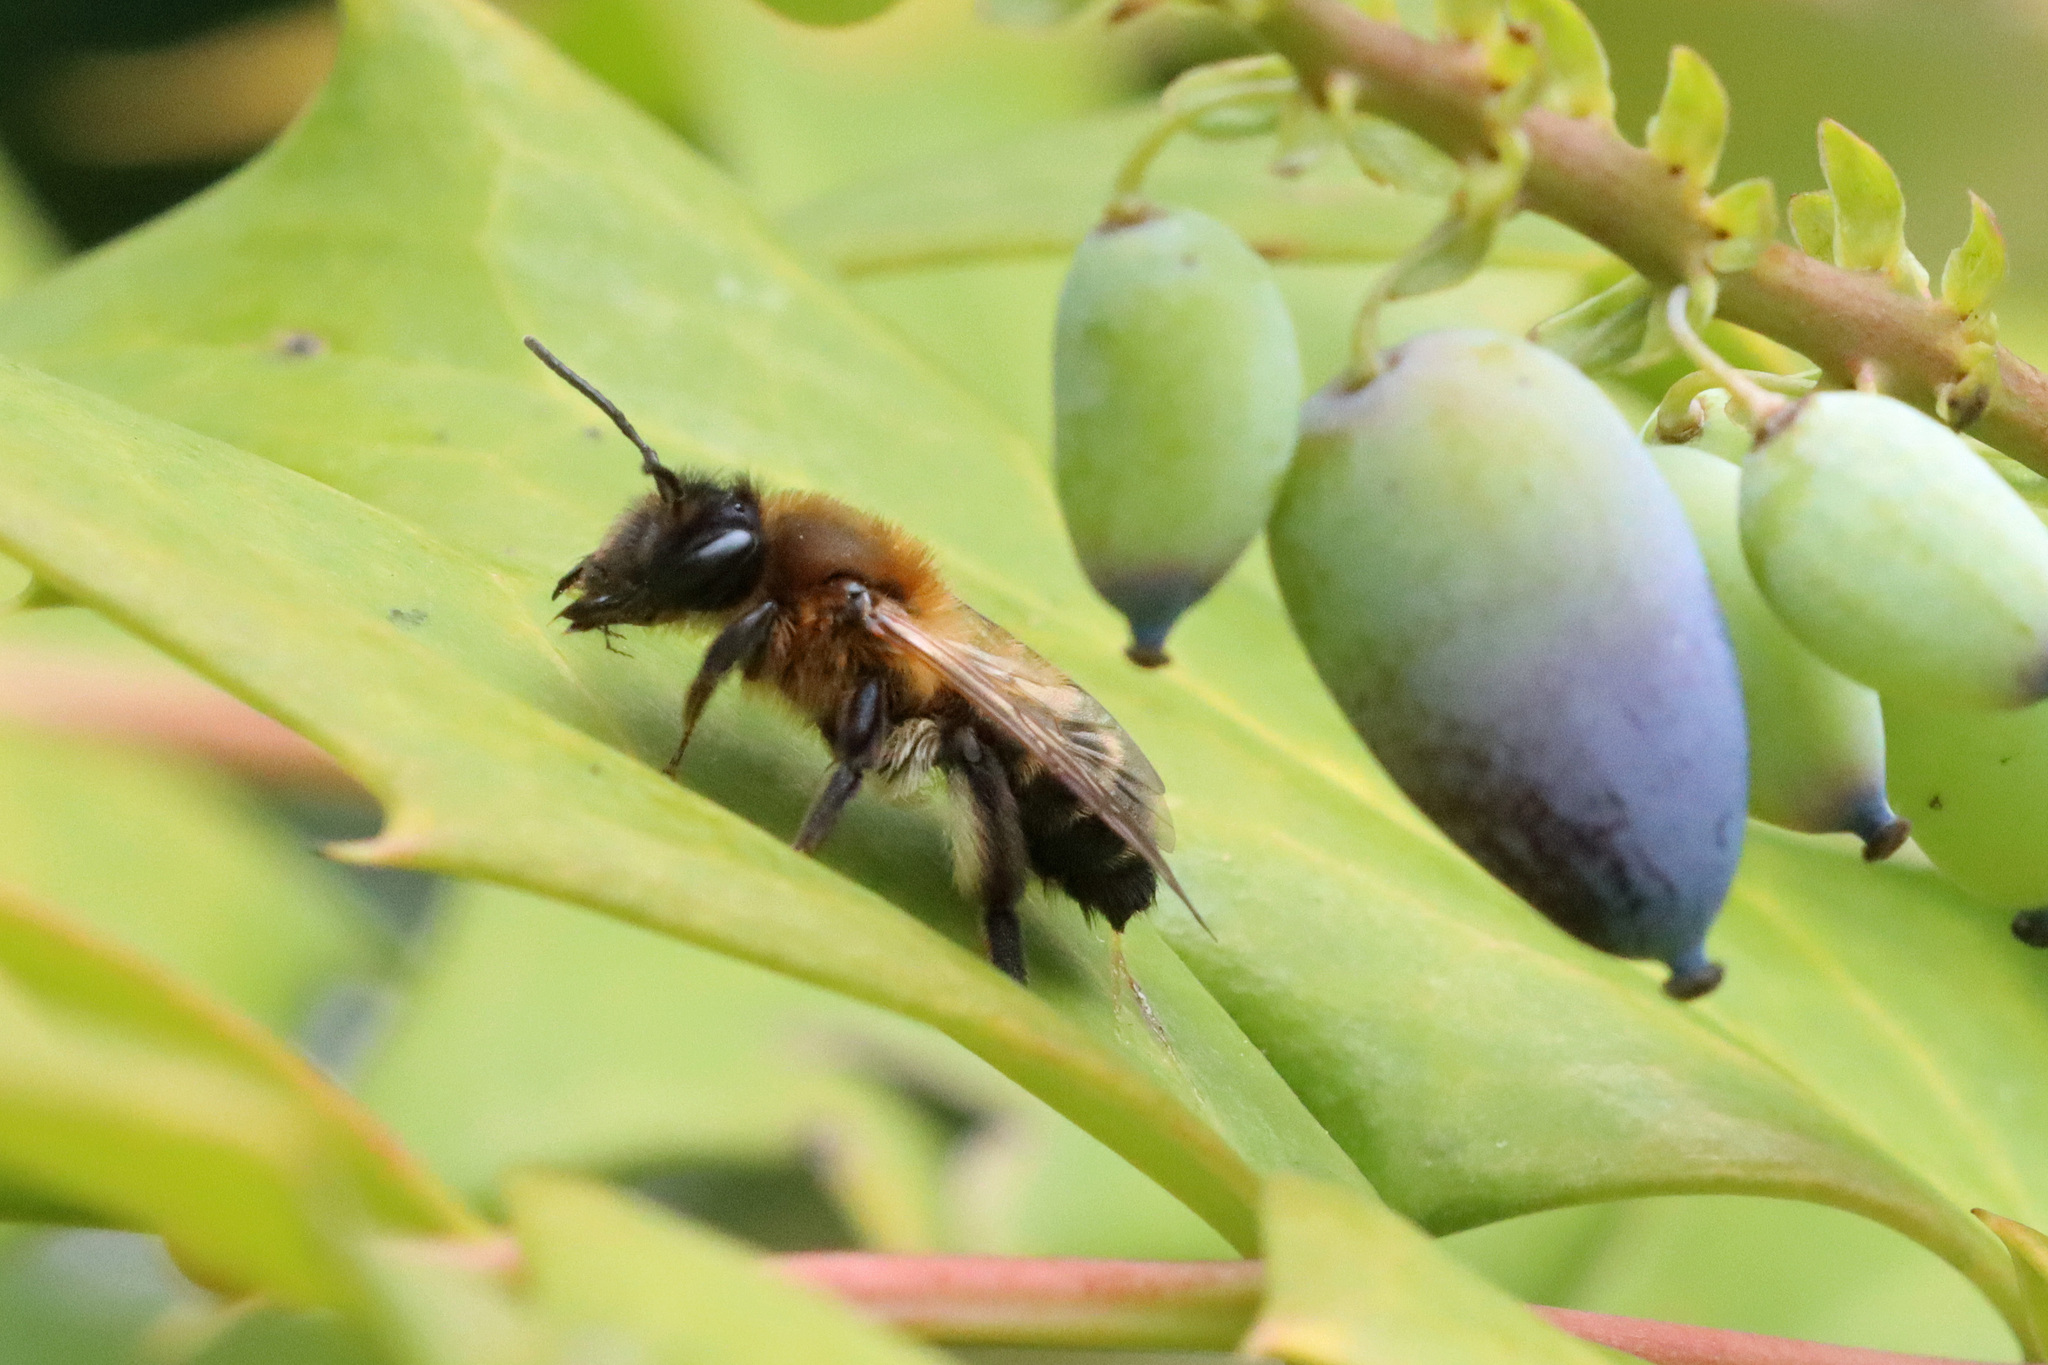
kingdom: Animalia
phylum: Arthropoda
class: Insecta
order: Hymenoptera
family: Andrenidae
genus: Andrena
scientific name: Andrena carantonica
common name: Chocolate mining bee
